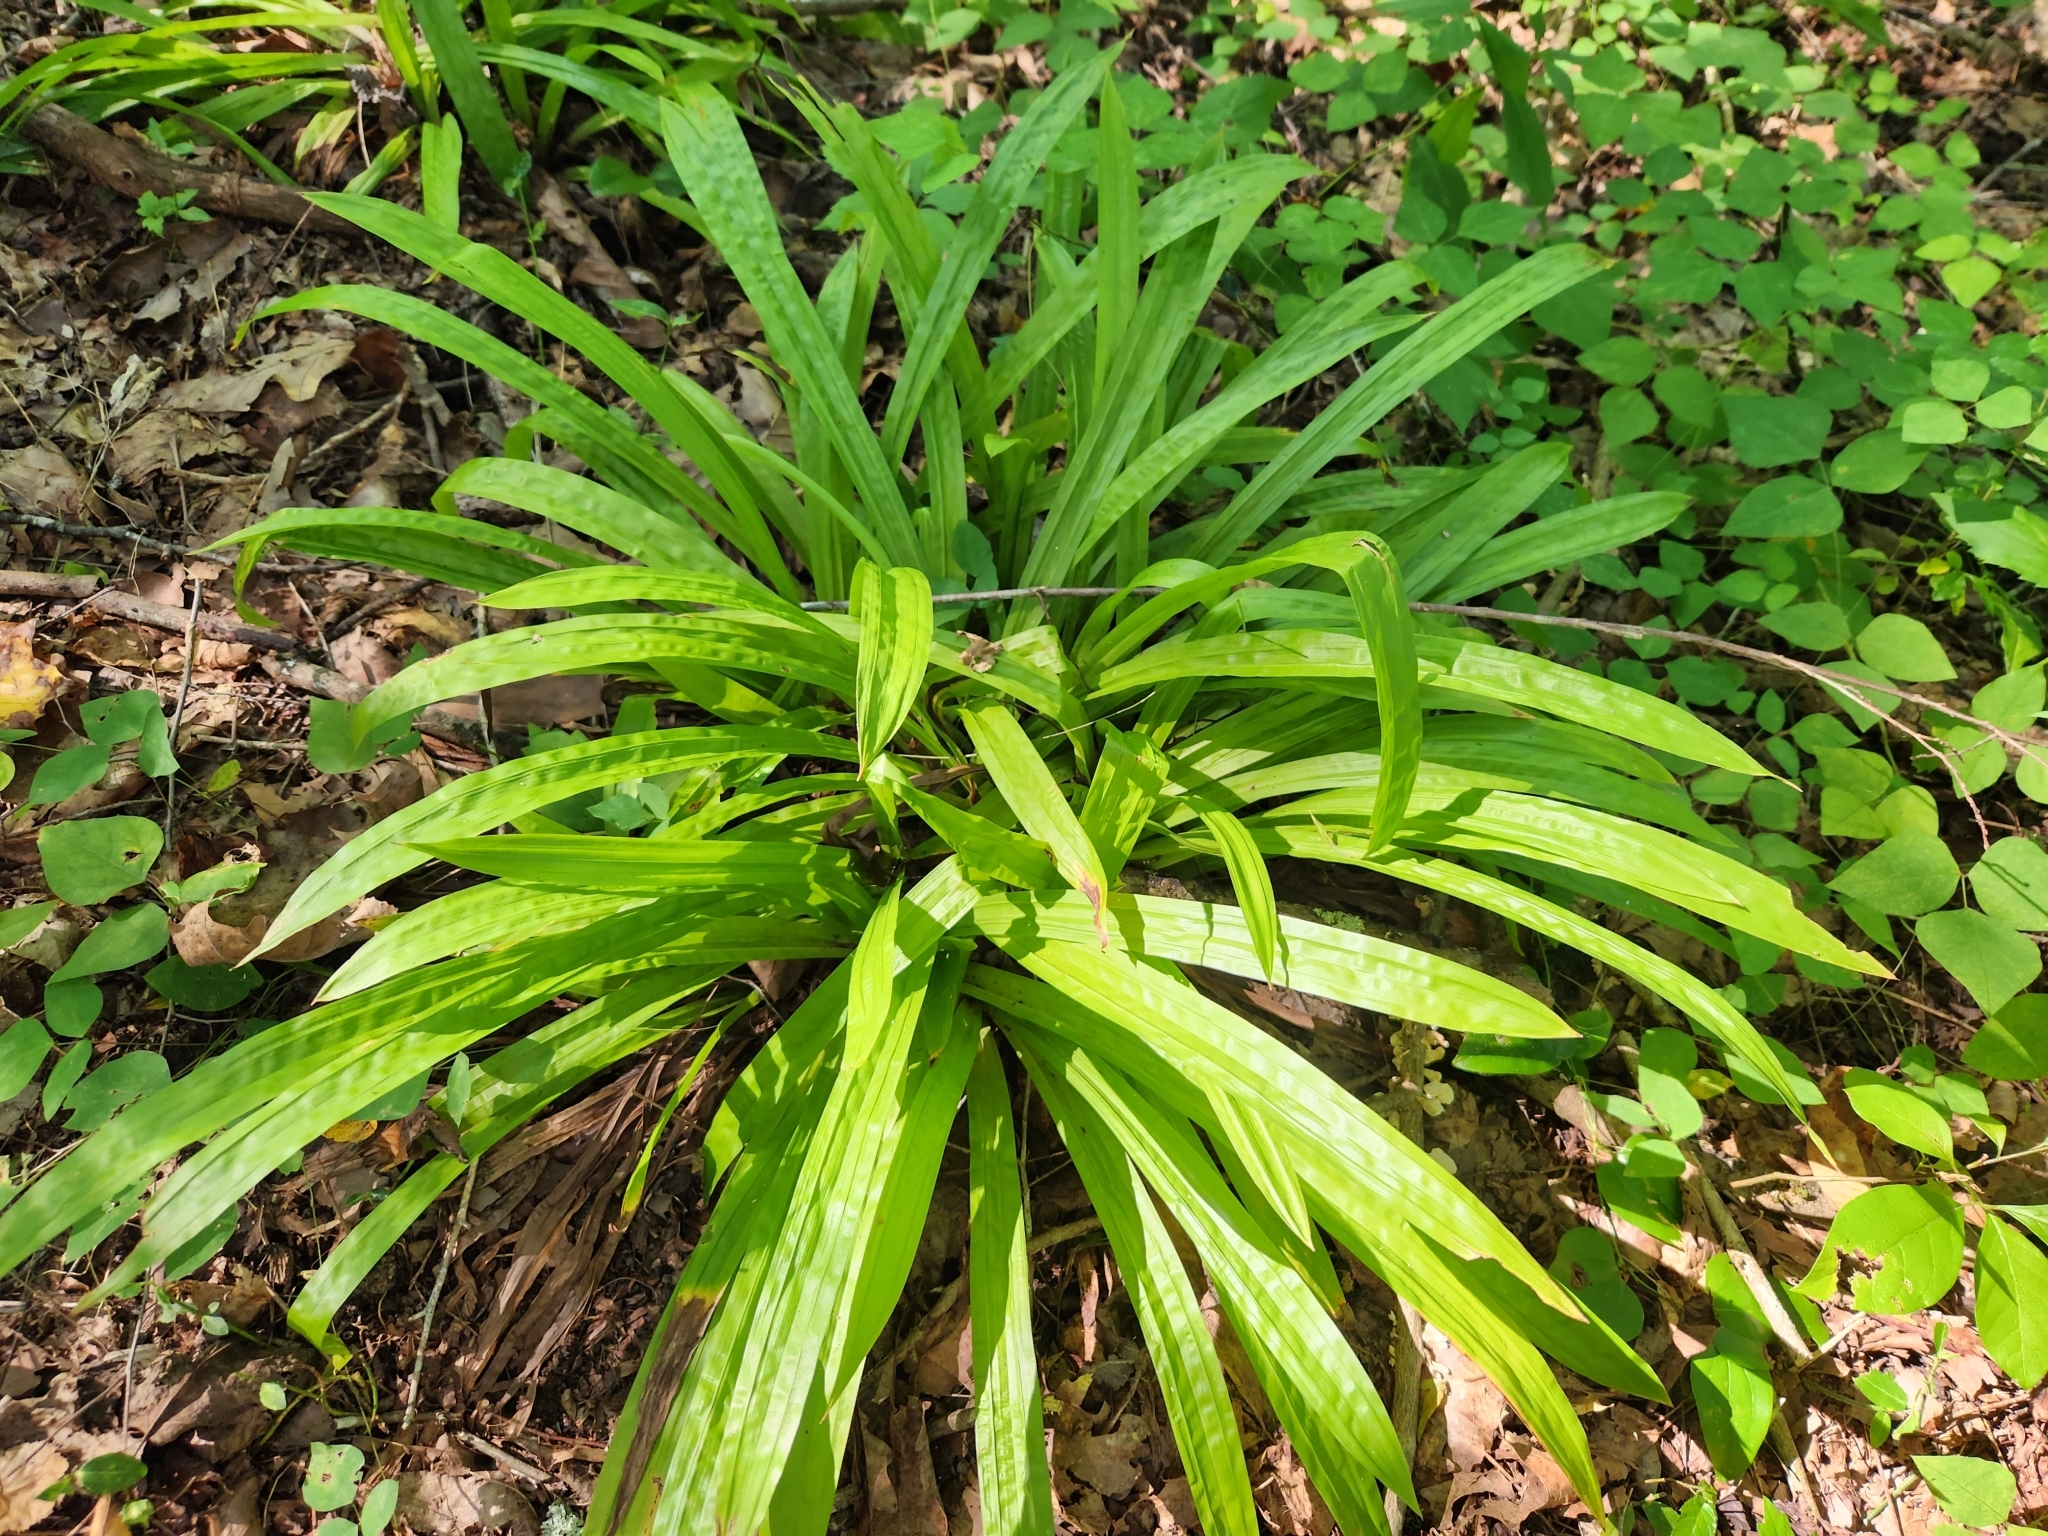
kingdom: Plantae
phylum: Tracheophyta
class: Liliopsida
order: Poales
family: Cyperaceae
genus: Carex
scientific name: Carex plantaginea
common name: Plantain-leaved sedge
